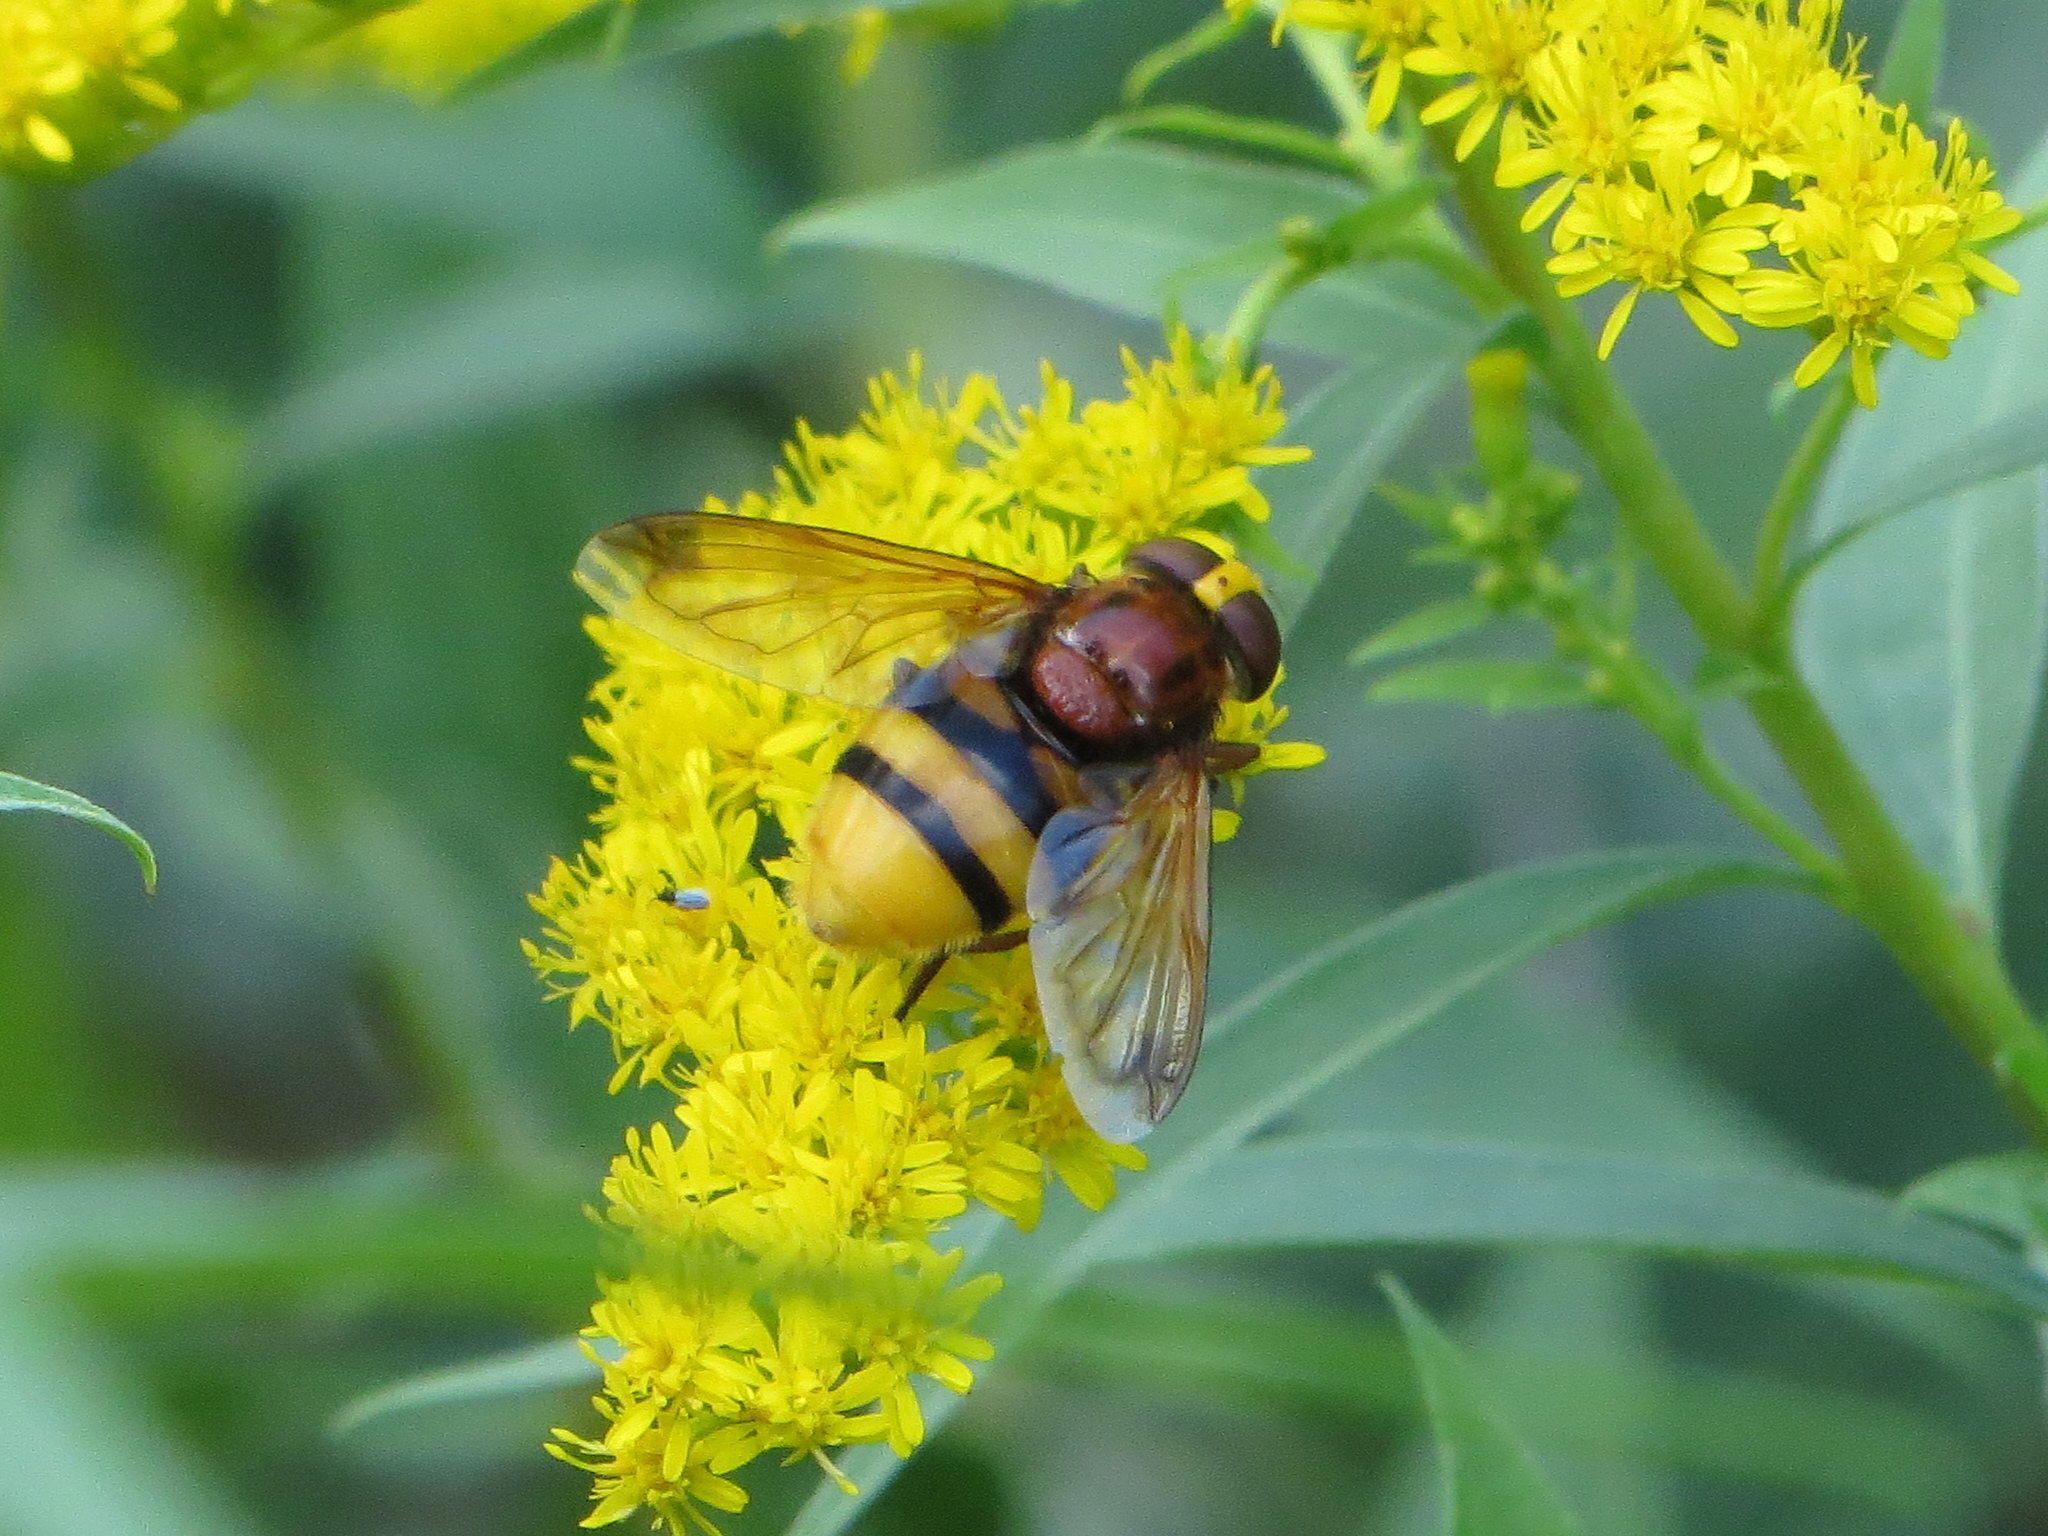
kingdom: Animalia
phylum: Arthropoda
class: Insecta
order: Diptera
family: Syrphidae
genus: Volucella
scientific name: Volucella zonaria
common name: Hornet hoverfly
